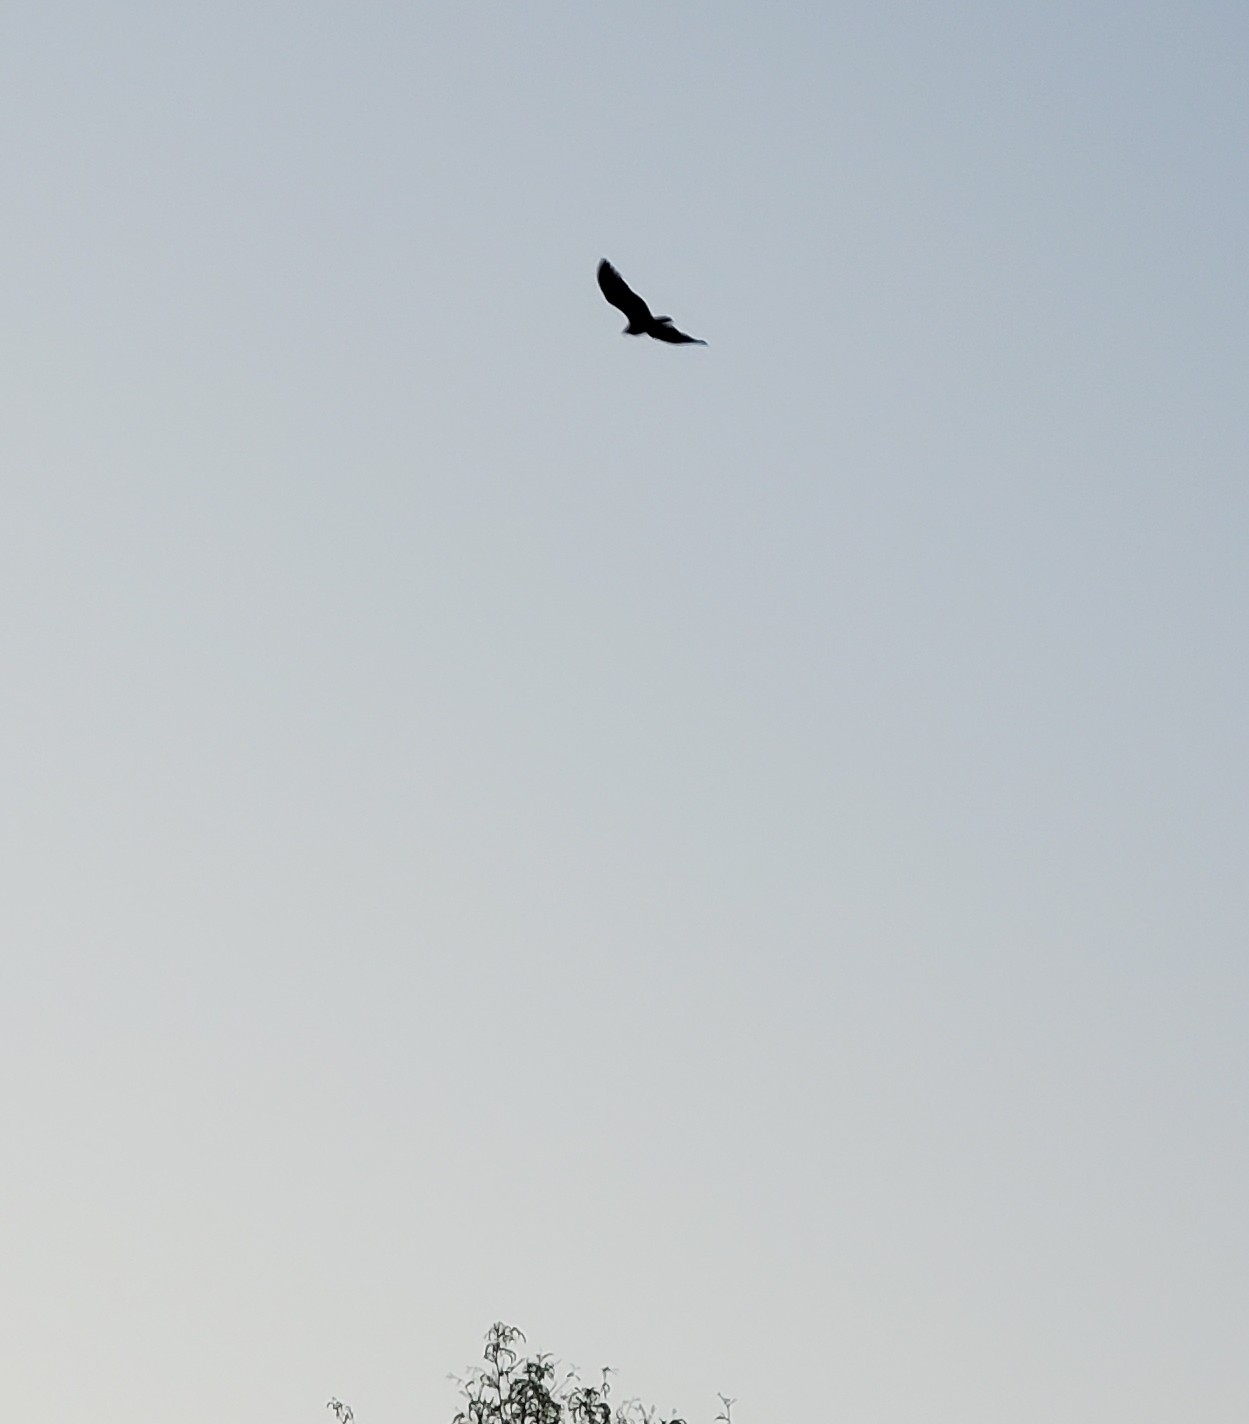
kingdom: Animalia
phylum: Chordata
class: Aves
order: Accipitriformes
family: Cathartidae
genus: Cathartes
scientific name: Cathartes aura
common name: Turkey vulture
